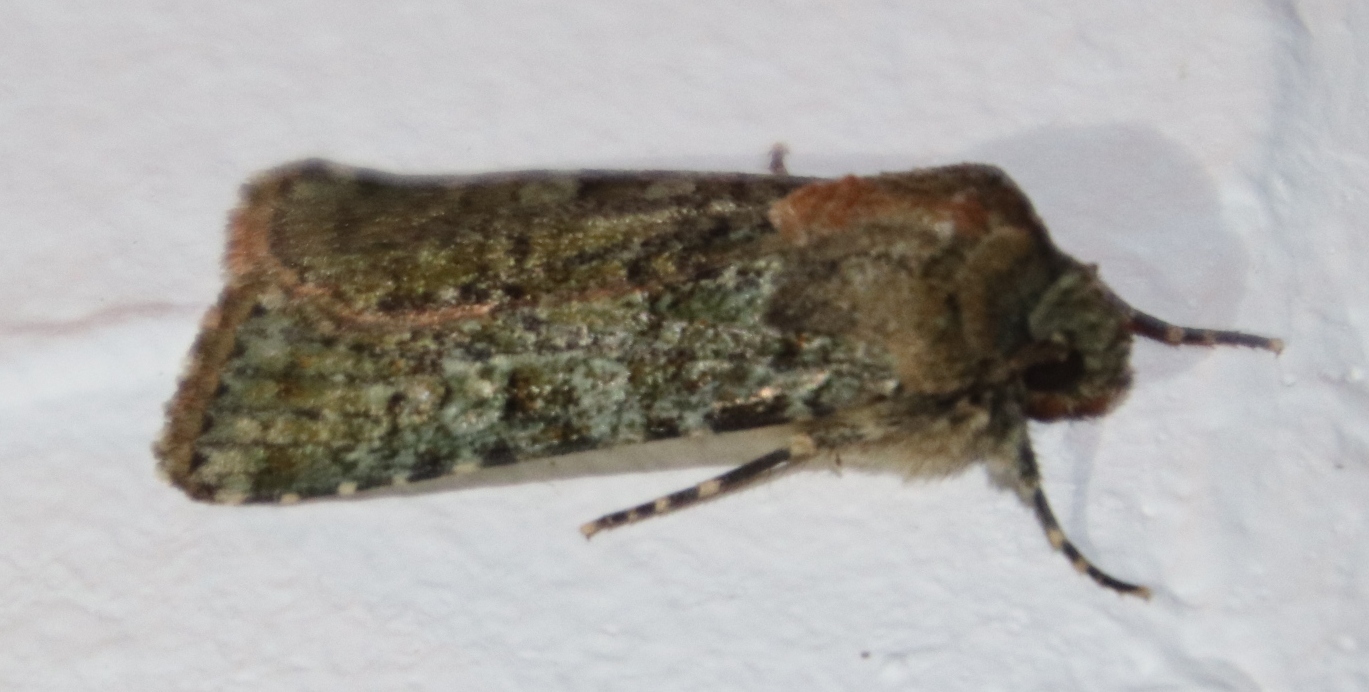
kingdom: Animalia
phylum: Arthropoda
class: Insecta
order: Lepidoptera
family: Noctuidae
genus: Klugeana
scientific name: Klugeana philoxalis
